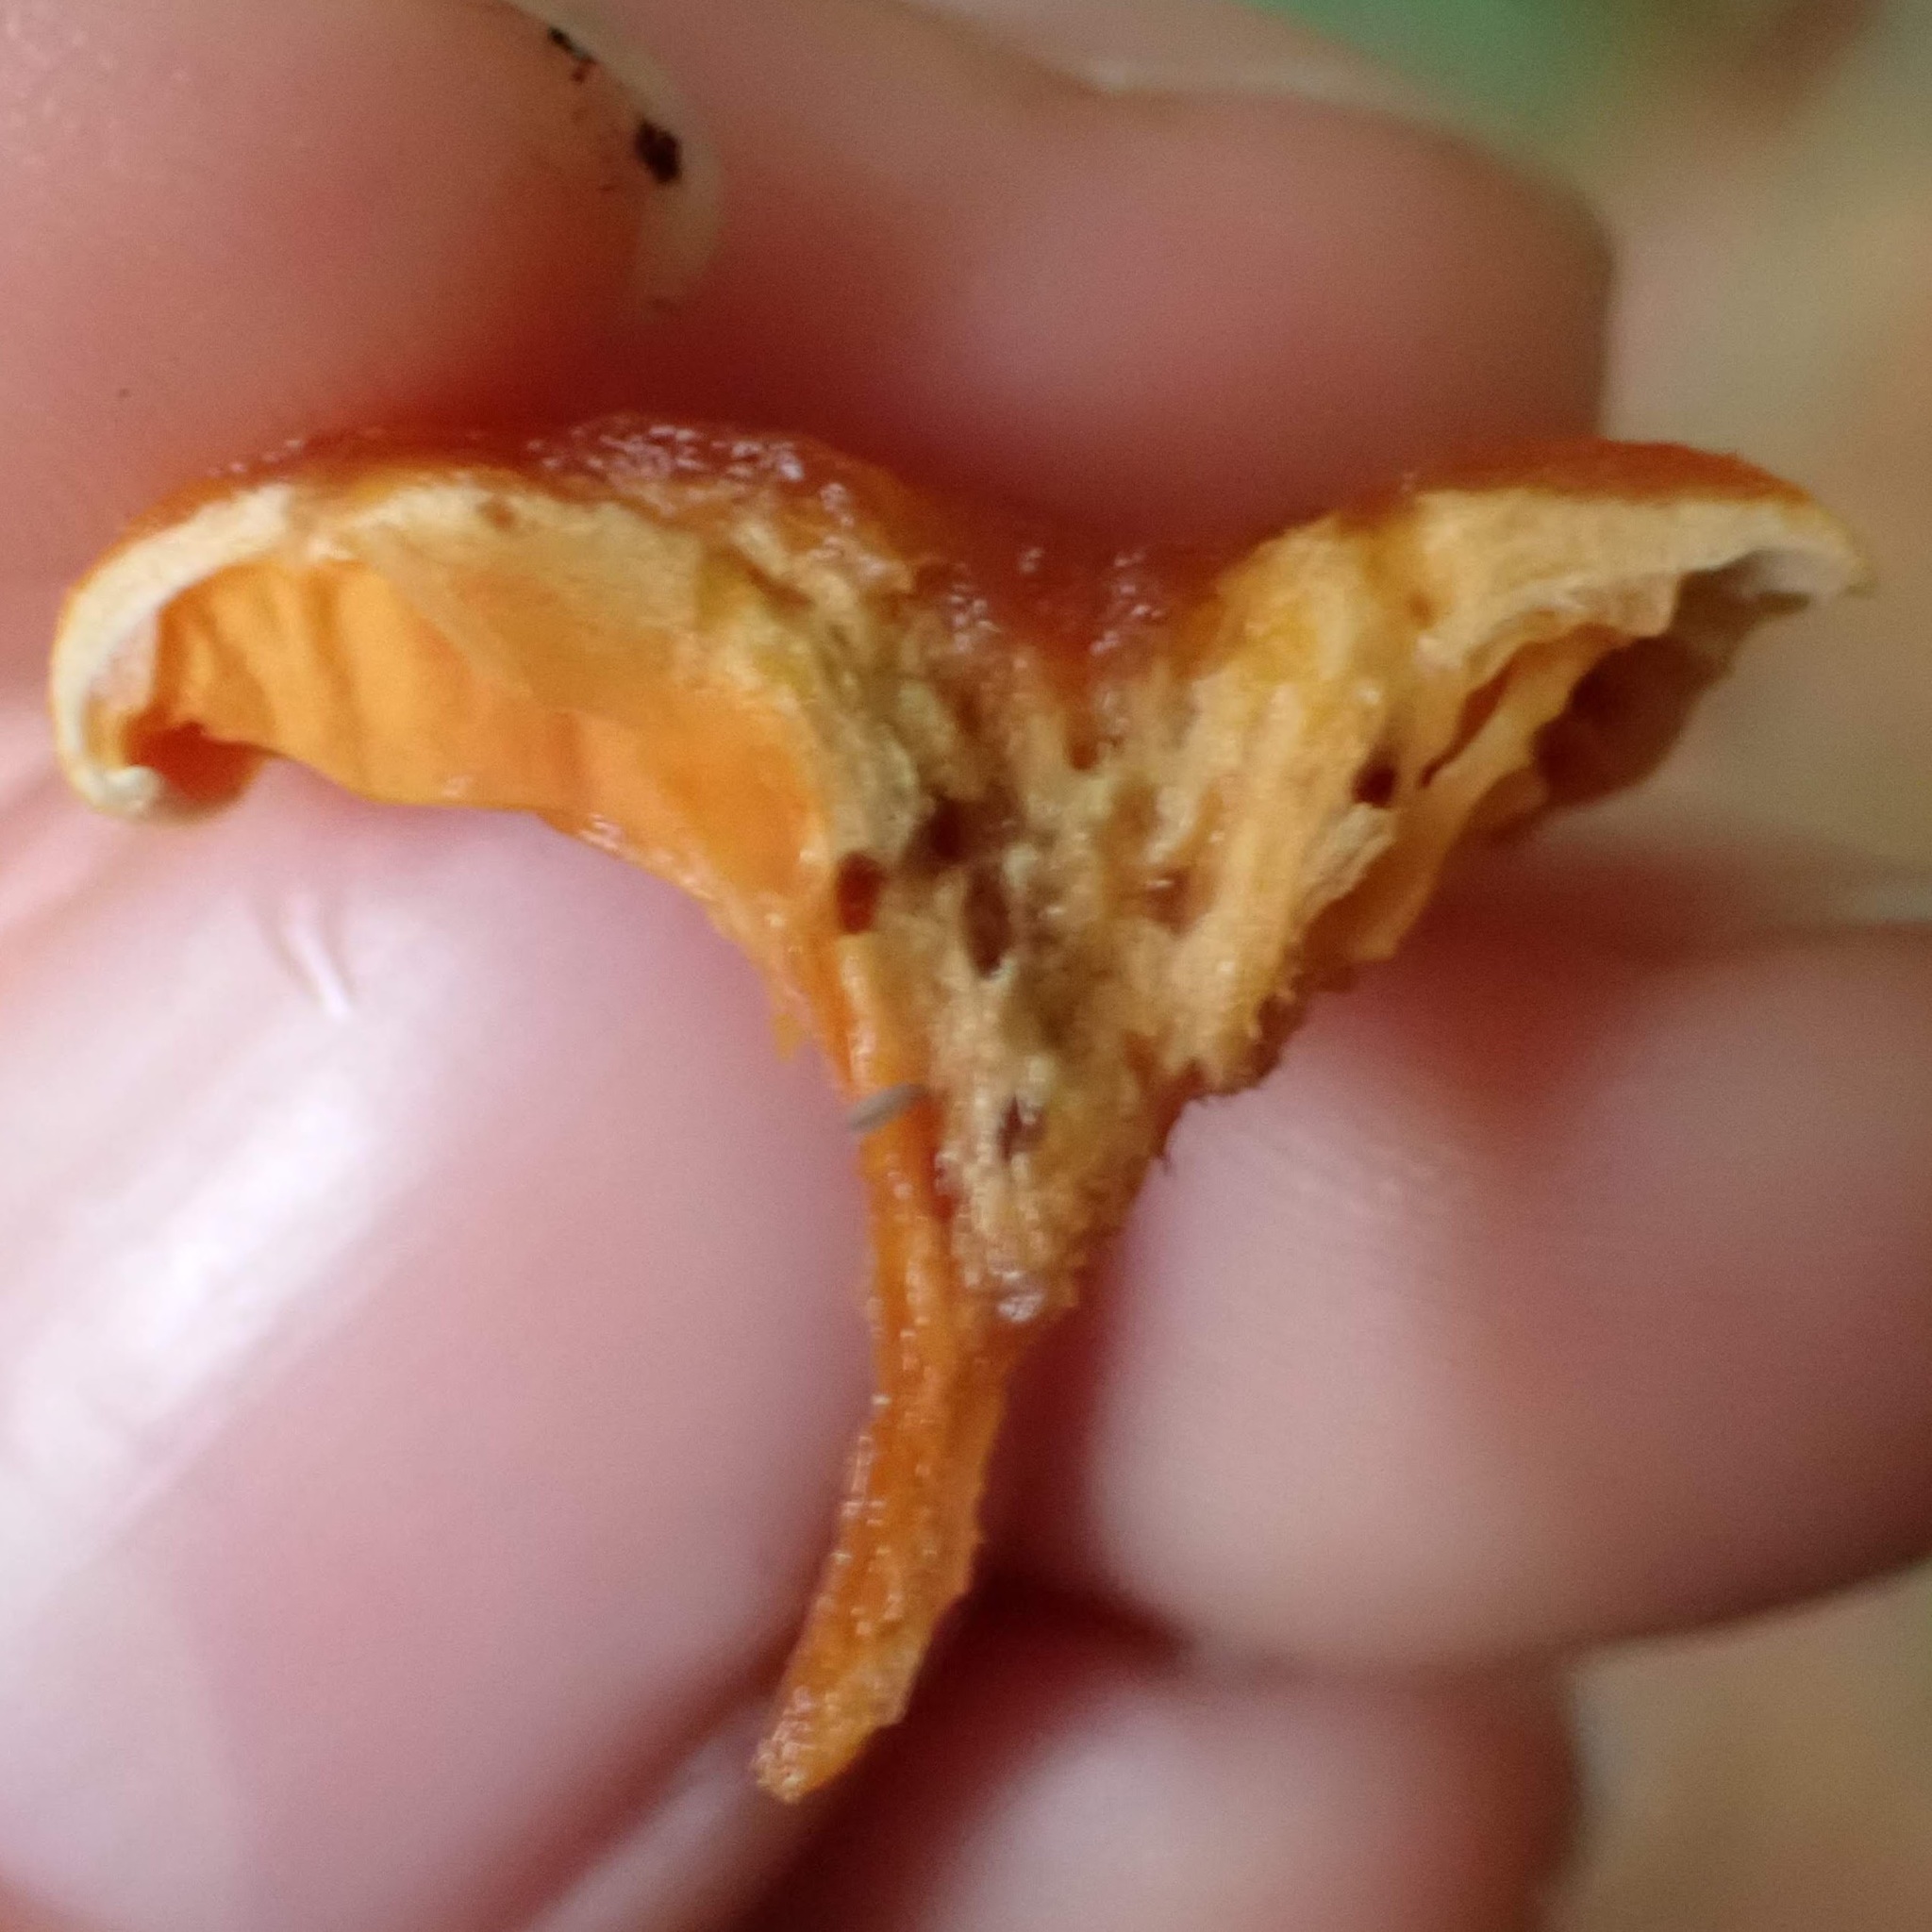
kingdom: Fungi
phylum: Basidiomycota
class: Agaricomycetes
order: Boletales
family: Hygrophoropsidaceae
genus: Hygrophoropsis
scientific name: Hygrophoropsis aurantiaca
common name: False chanterelle
